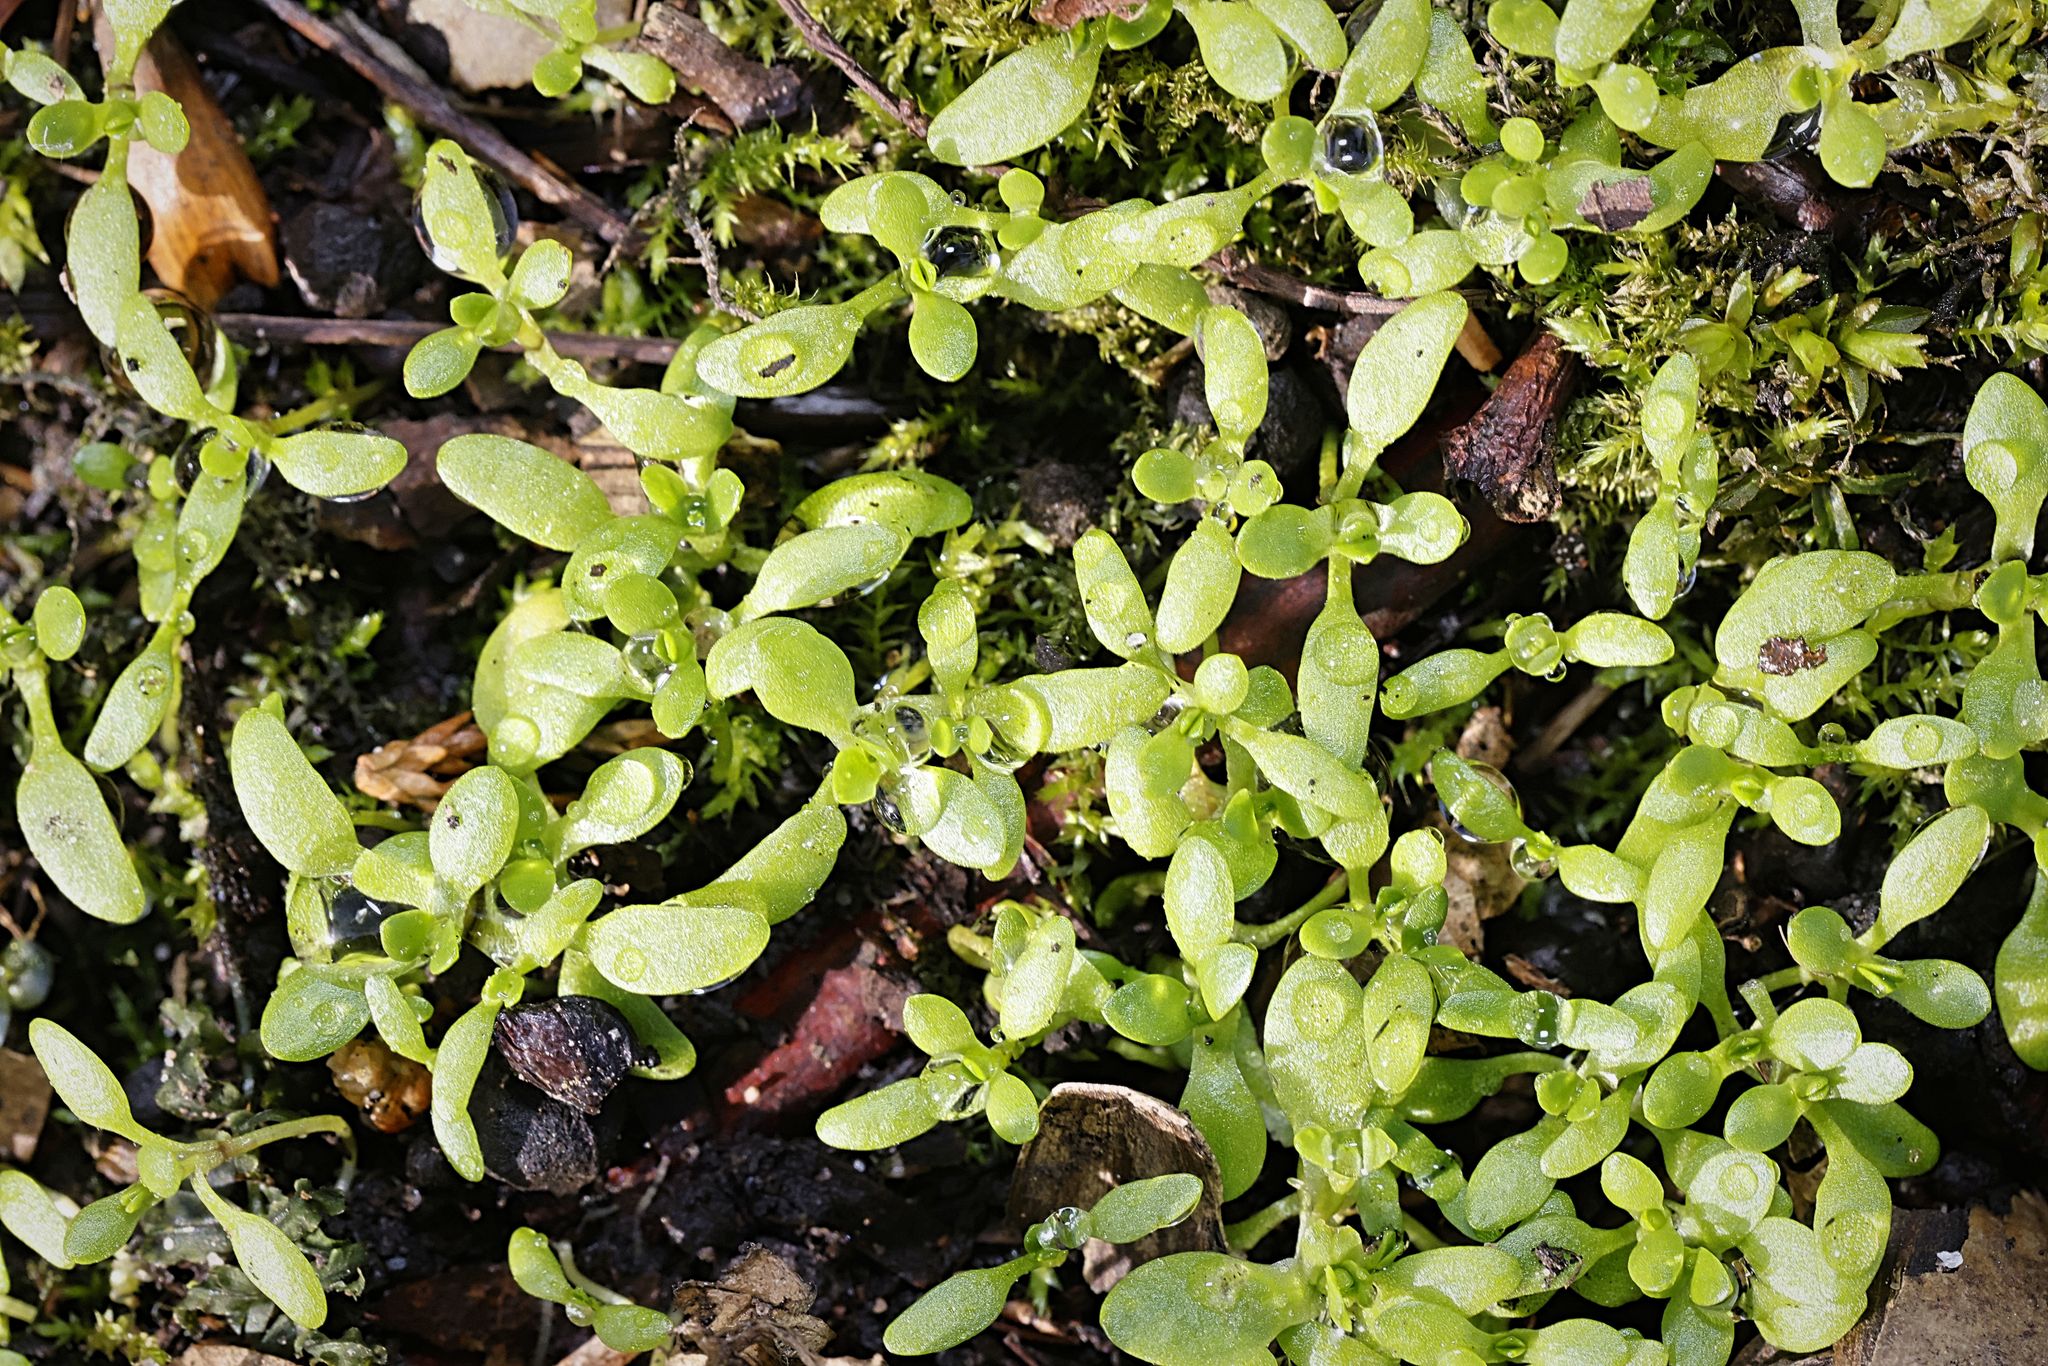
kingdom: Plantae
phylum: Tracheophyta
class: Magnoliopsida
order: Caryophyllales
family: Montiaceae
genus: Montia
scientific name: Montia fontana
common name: Blinks
